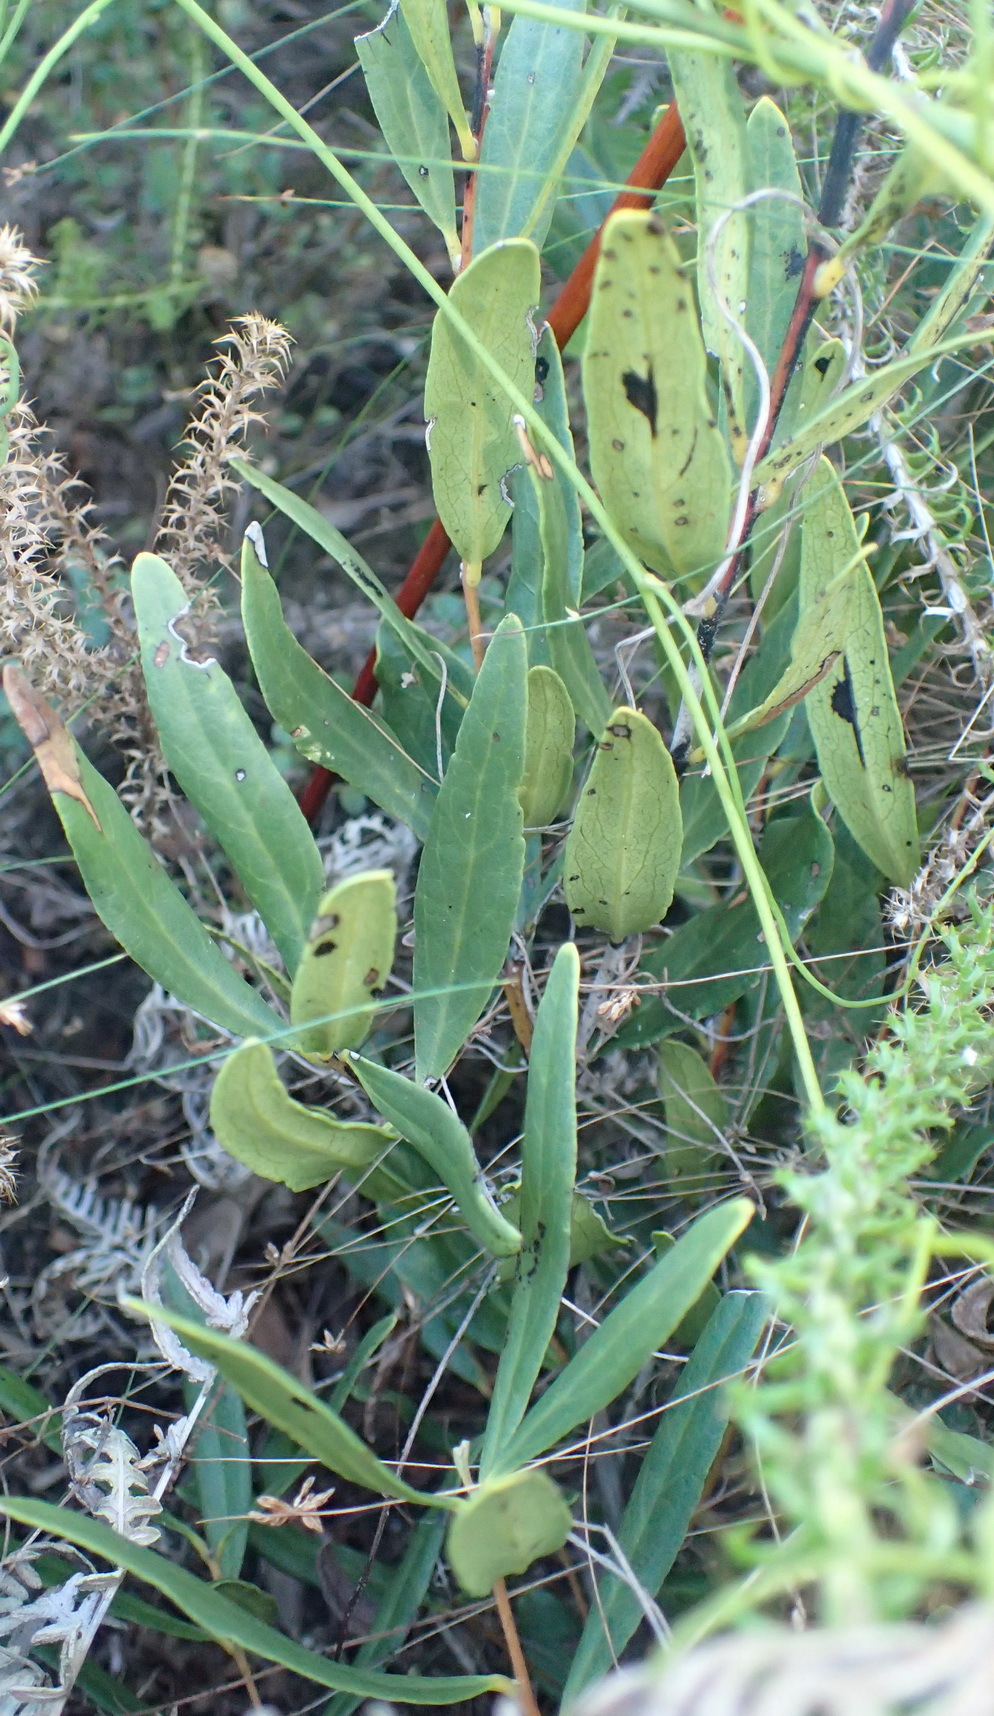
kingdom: Plantae
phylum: Tracheophyta
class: Magnoliopsida
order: Ericales
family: Ebenaceae
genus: Euclea
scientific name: Euclea racemosa
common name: Dune guarri
